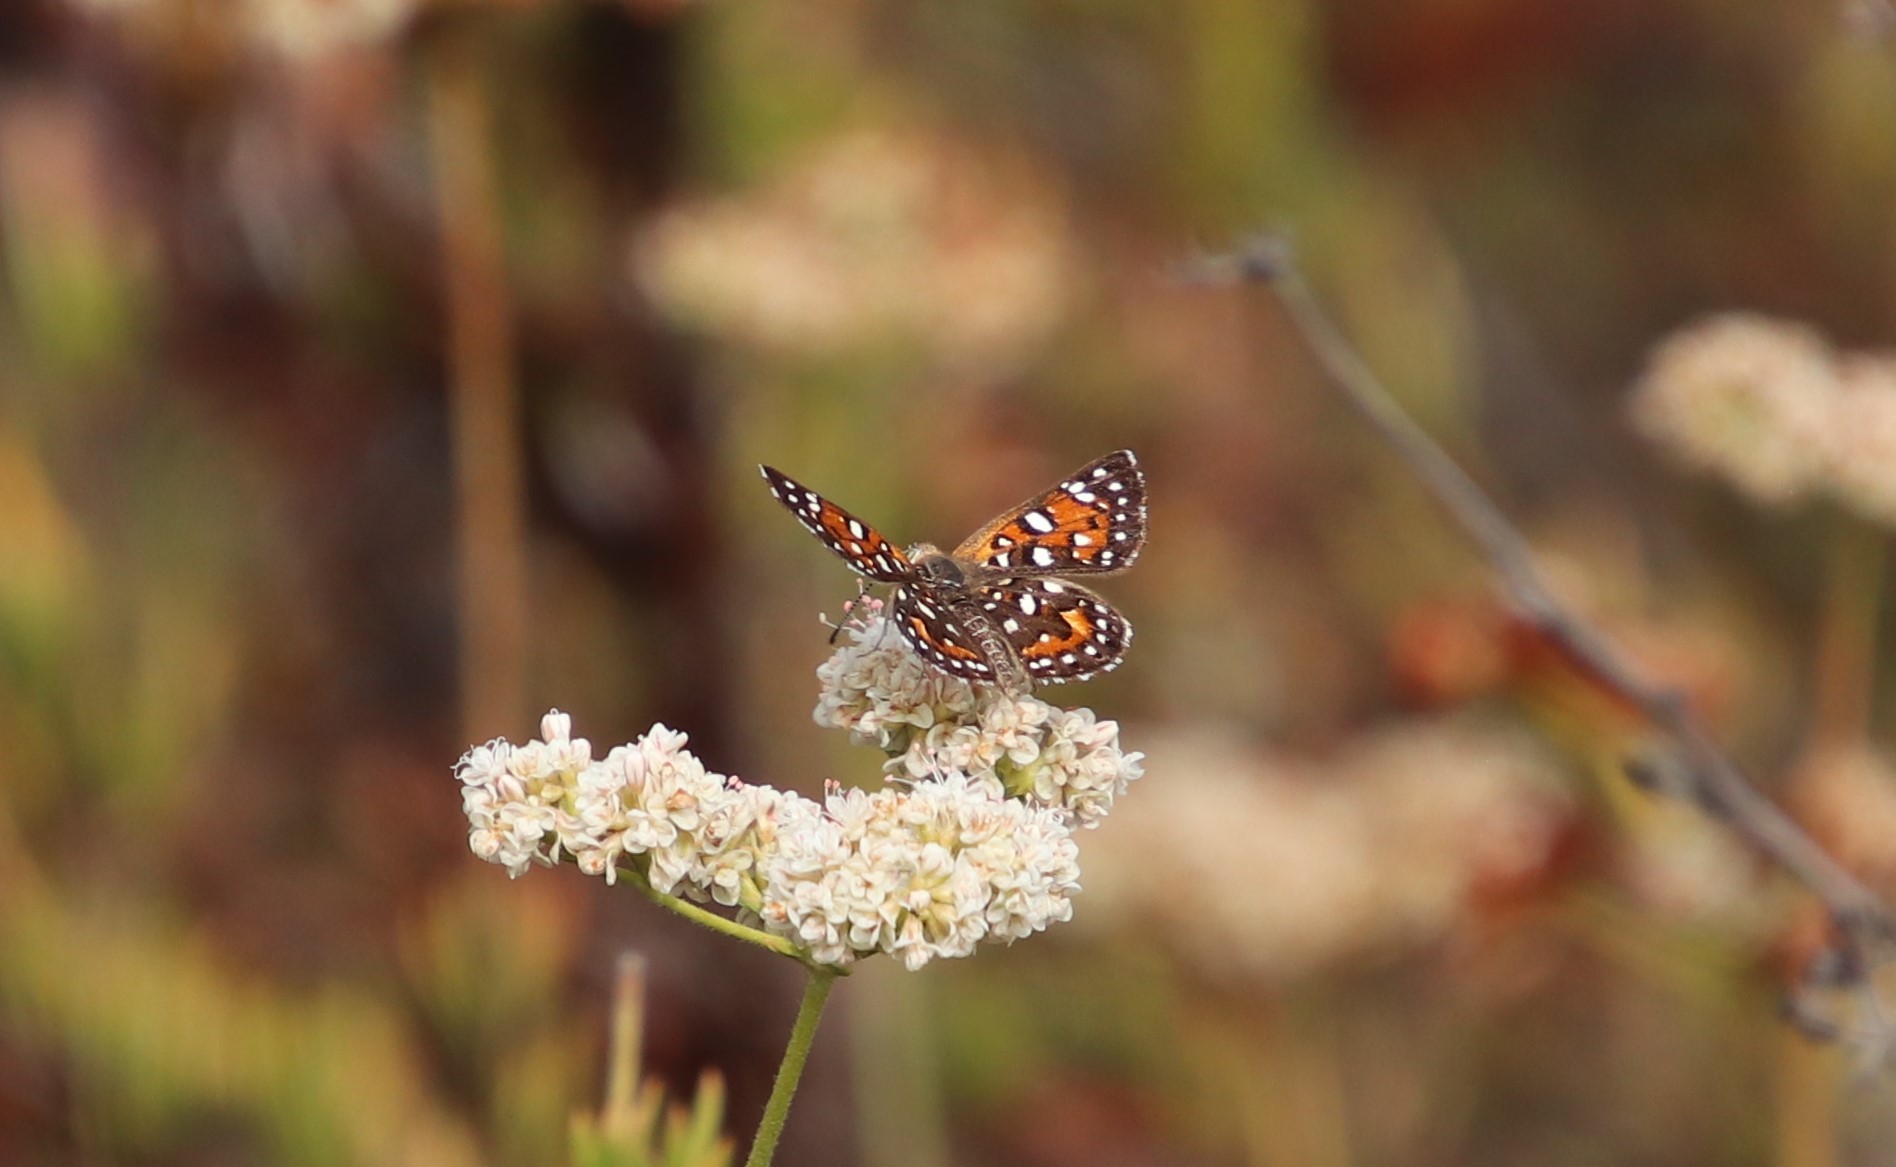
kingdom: Animalia
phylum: Arthropoda
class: Insecta
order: Lepidoptera
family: Riodinidae
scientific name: Riodinidae
